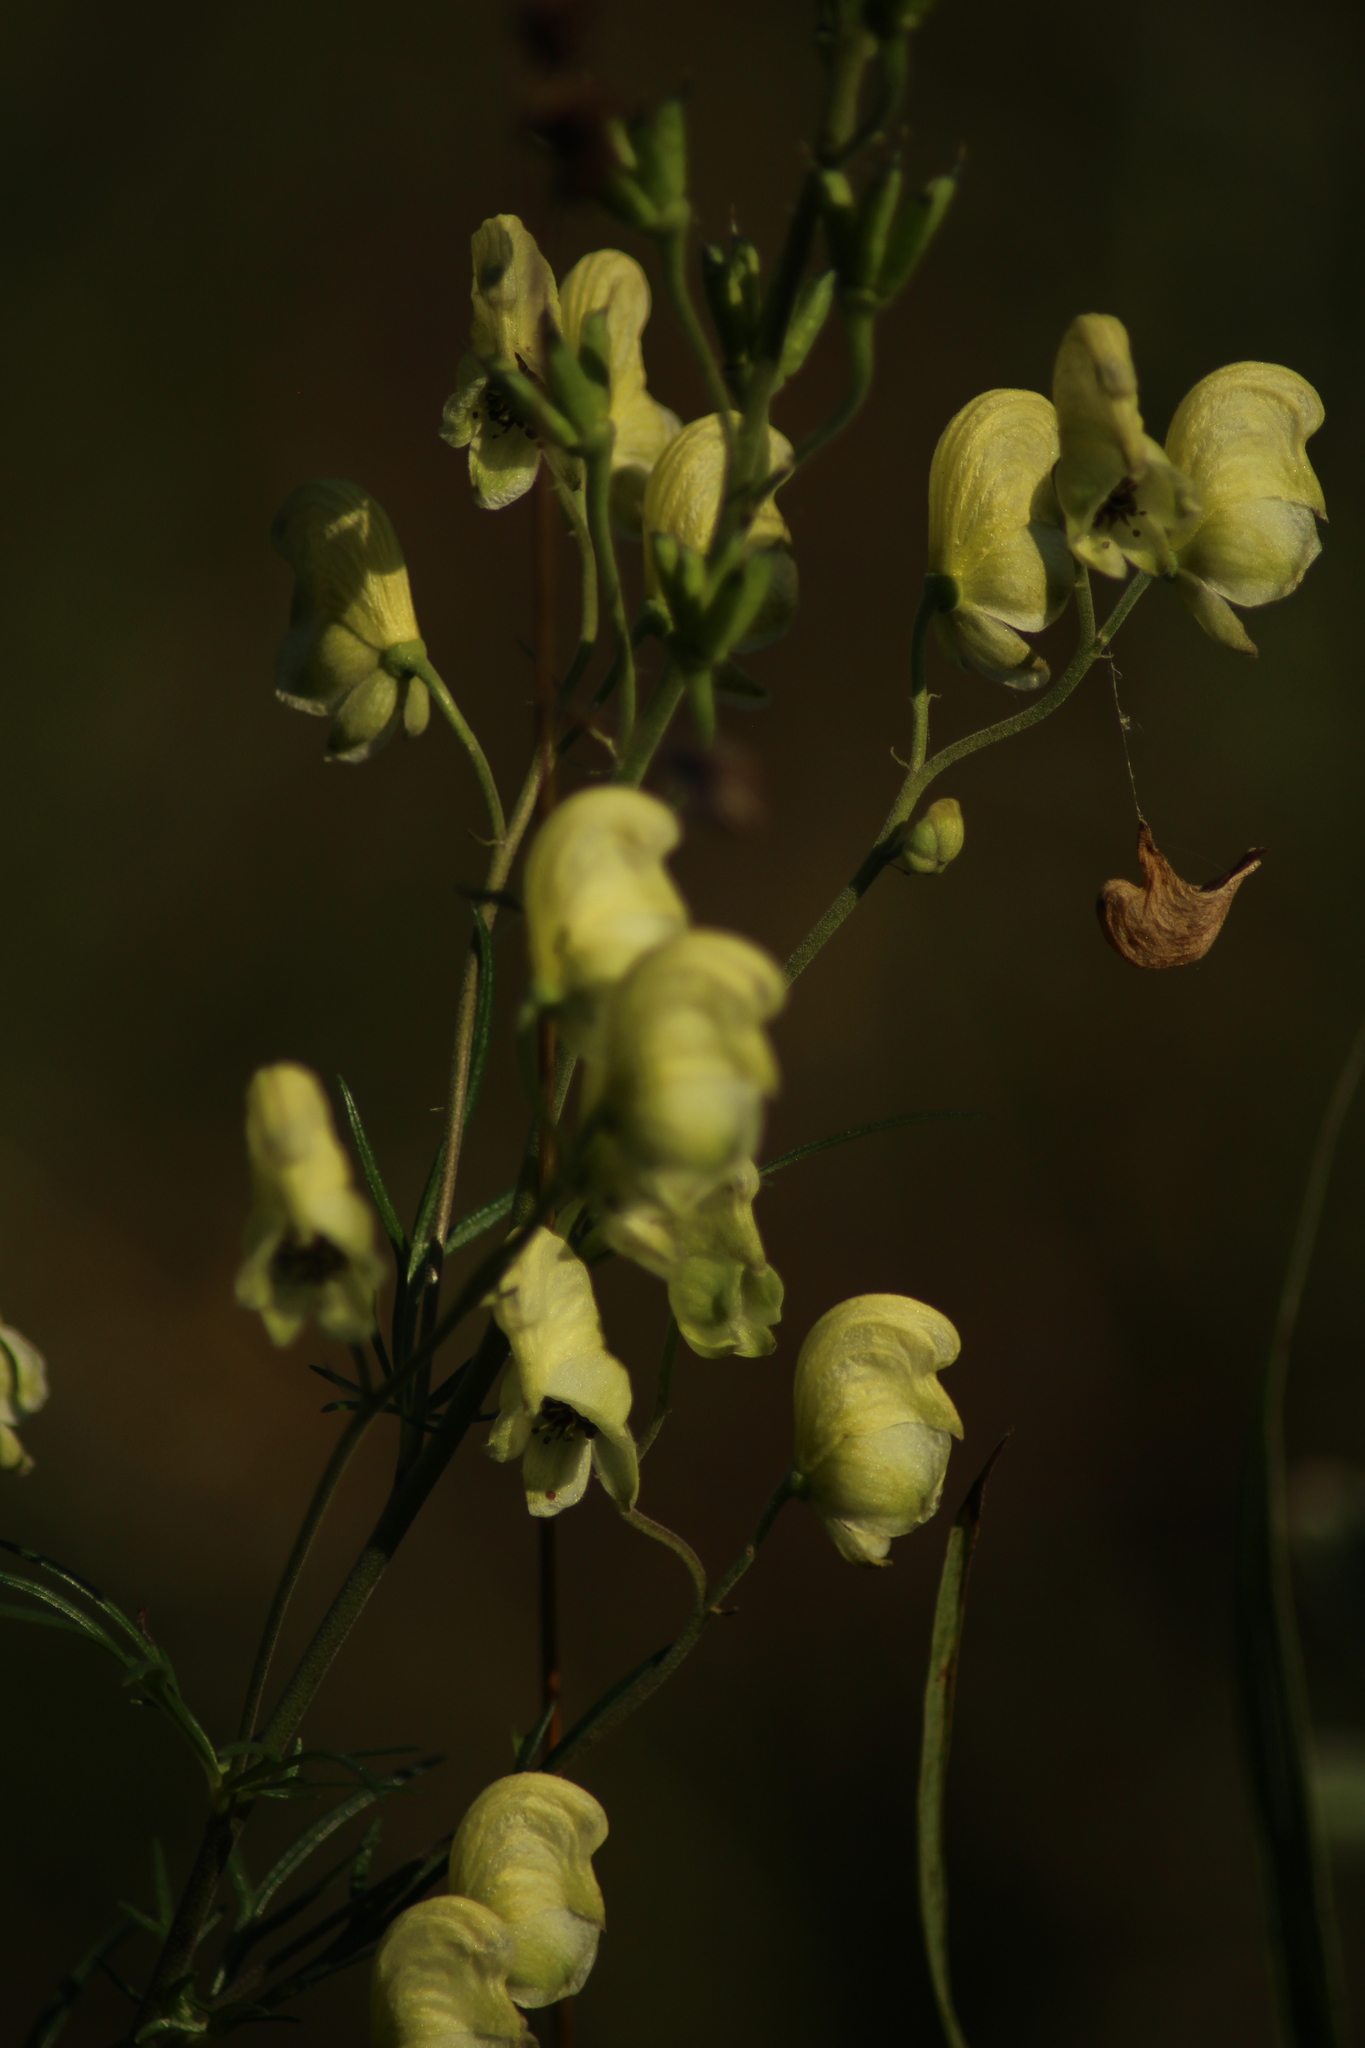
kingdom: Plantae
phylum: Tracheophyta
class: Magnoliopsida
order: Ranunculales
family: Ranunculaceae
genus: Aconitum
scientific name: Aconitum anthora
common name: Yellow monkshood
